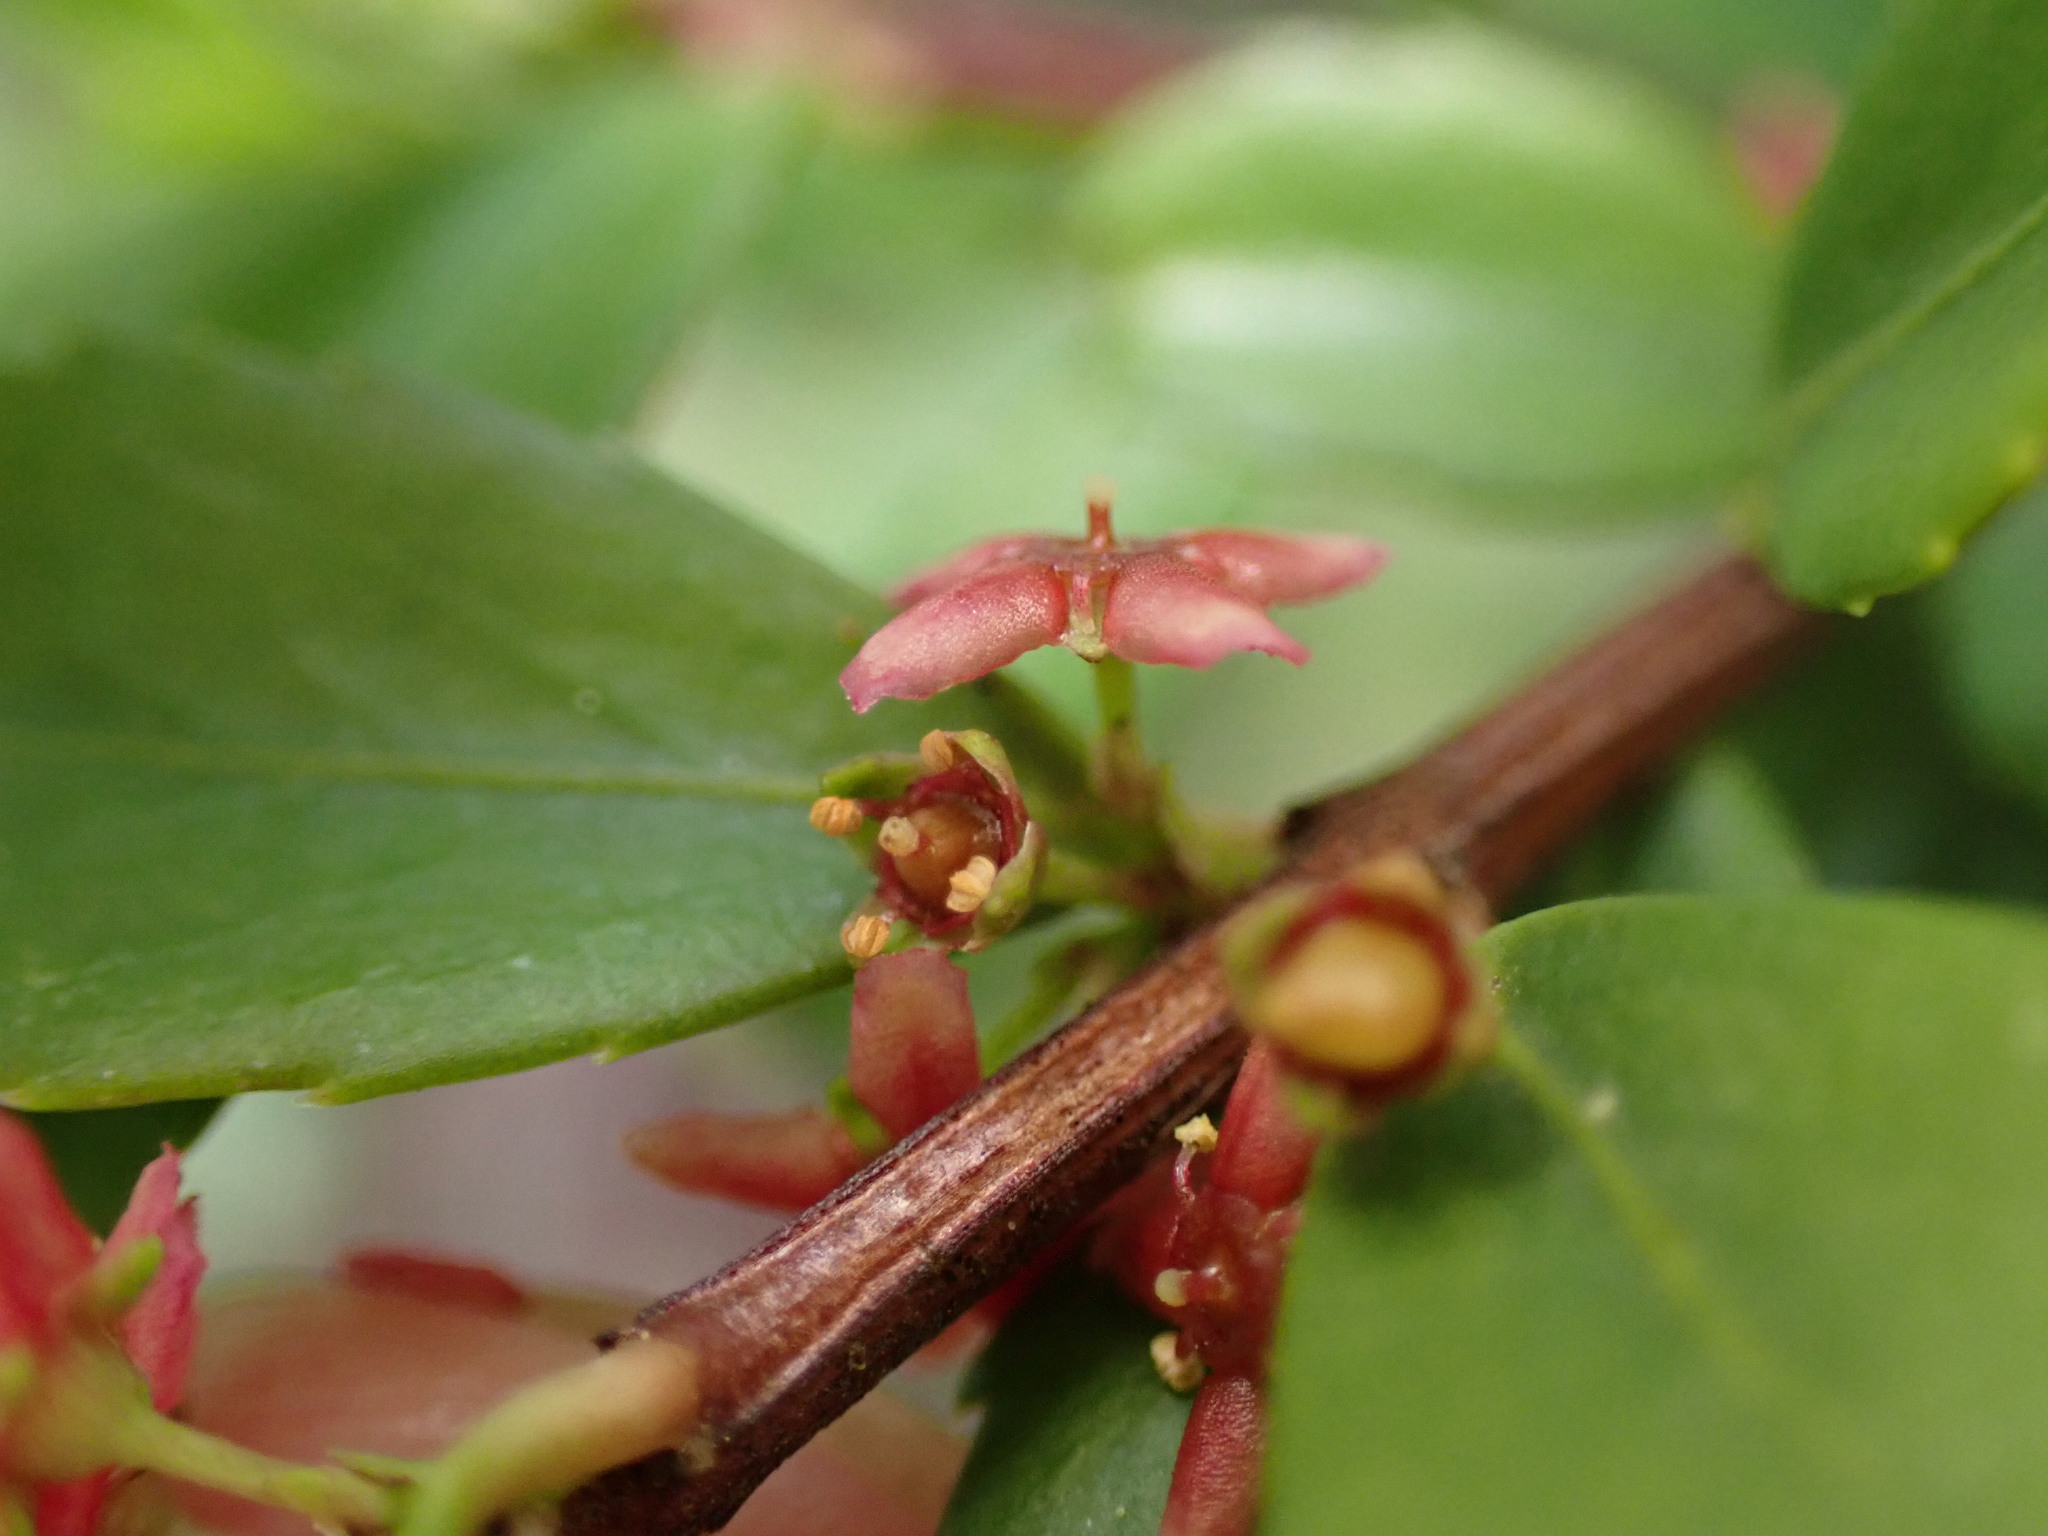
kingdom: Plantae
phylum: Tracheophyta
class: Magnoliopsida
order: Celastrales
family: Celastraceae
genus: Paxistima
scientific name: Paxistima myrsinites
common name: Mountain-lover
